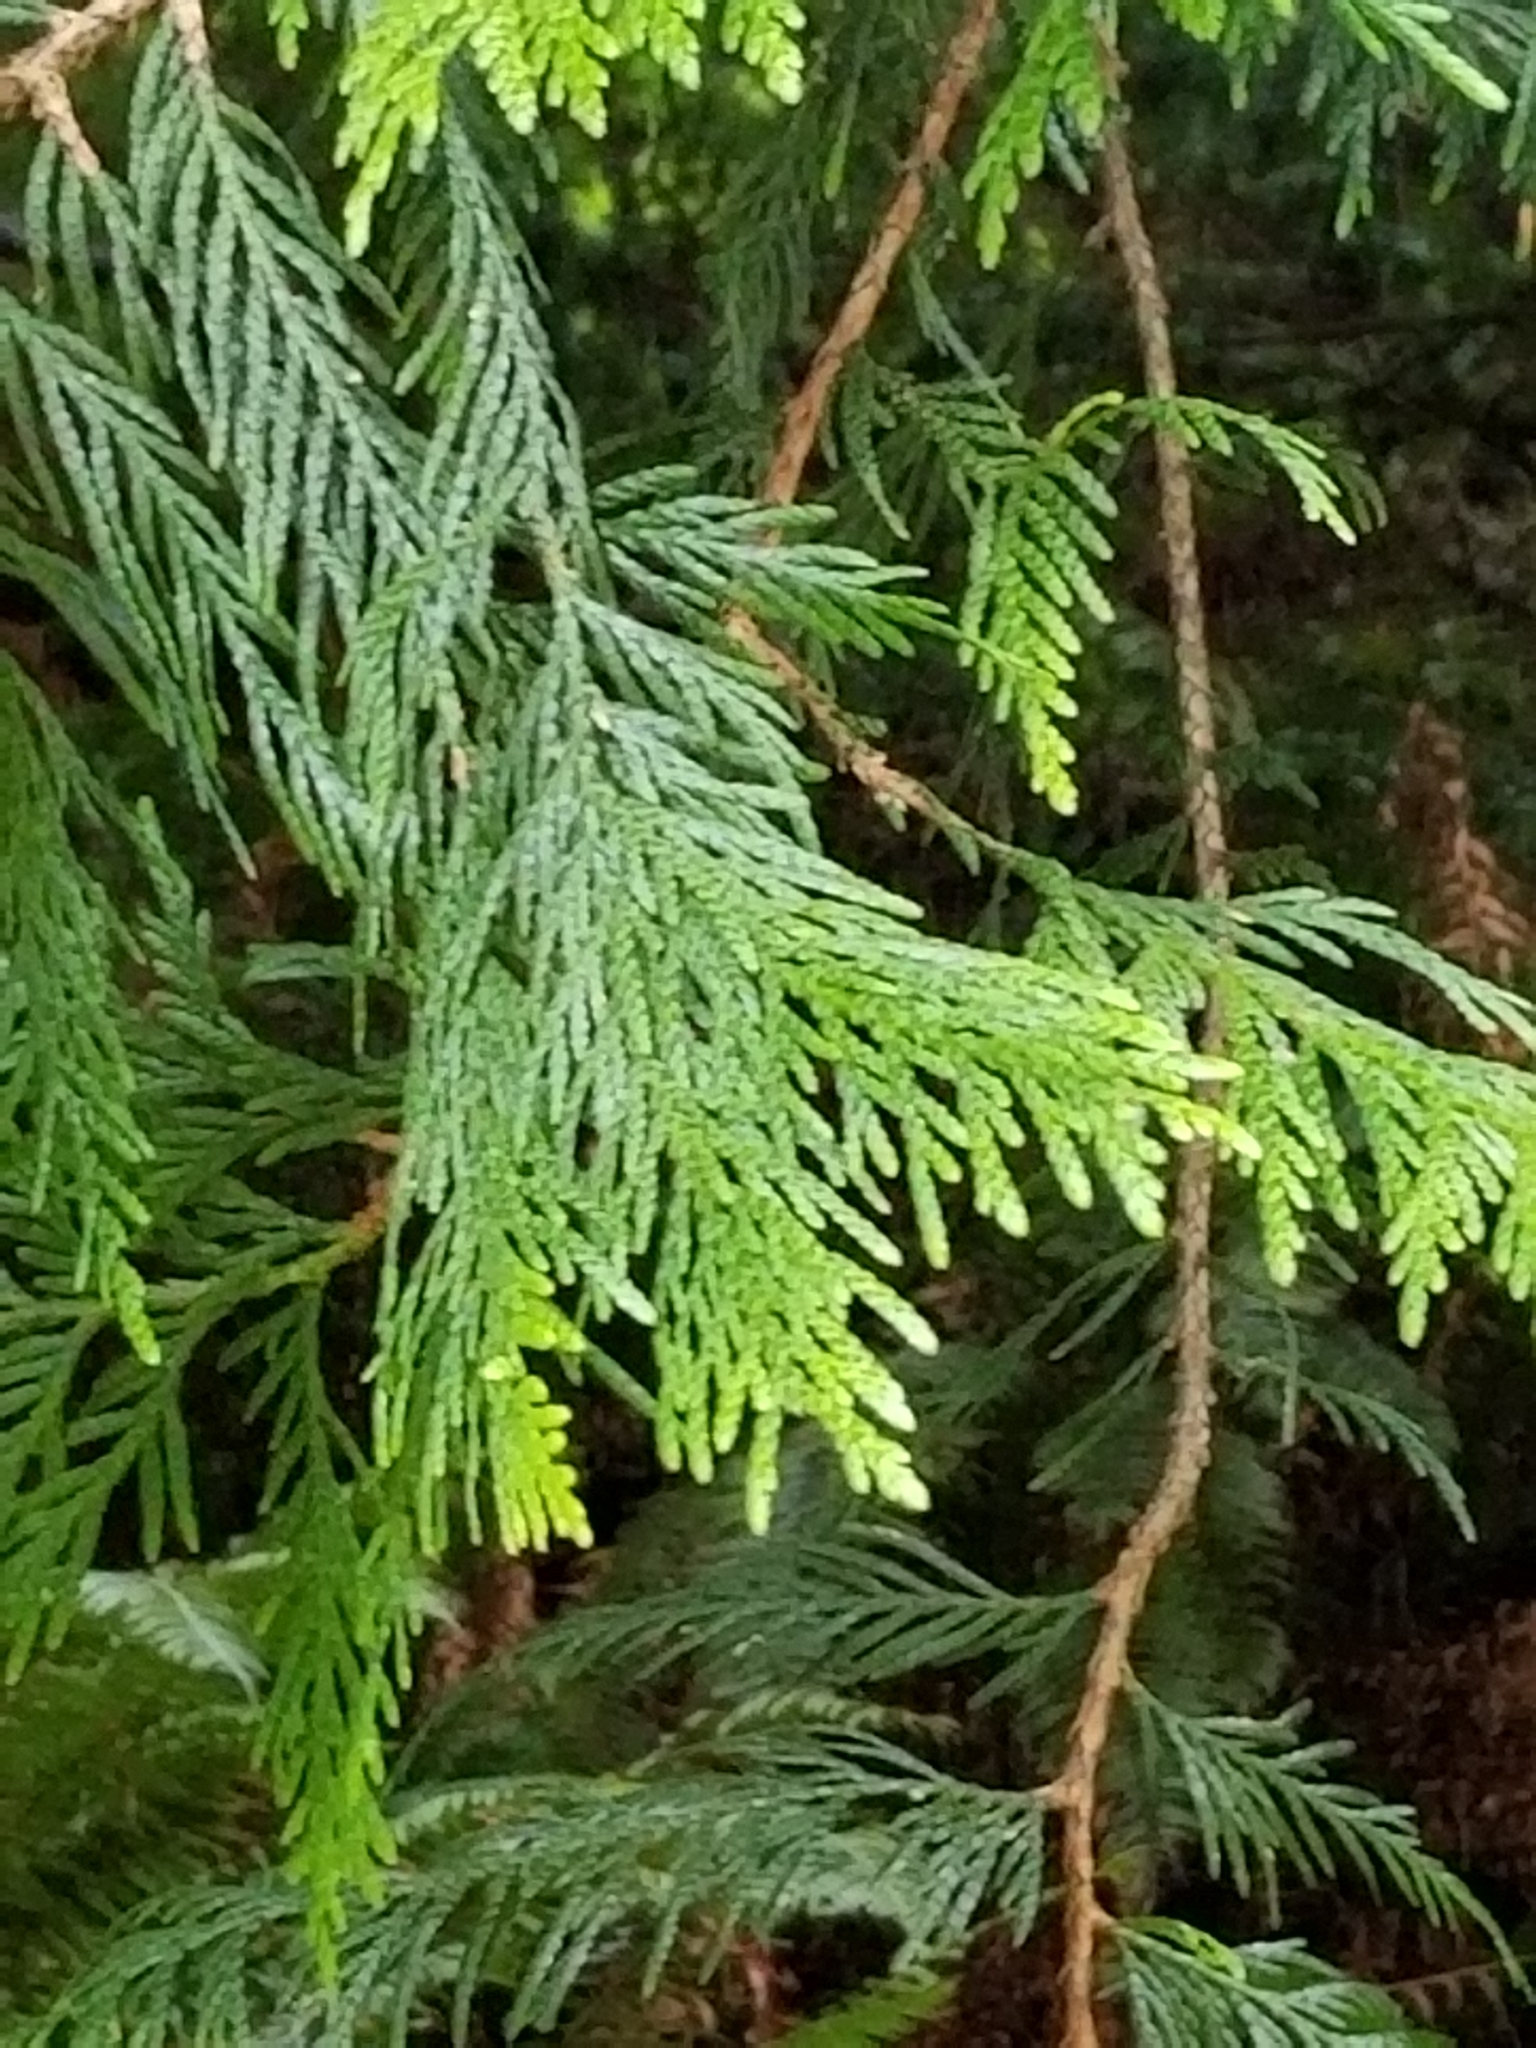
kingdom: Plantae
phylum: Tracheophyta
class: Pinopsida
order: Pinales
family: Cupressaceae
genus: Thuja
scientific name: Thuja plicata
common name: Western red-cedar
